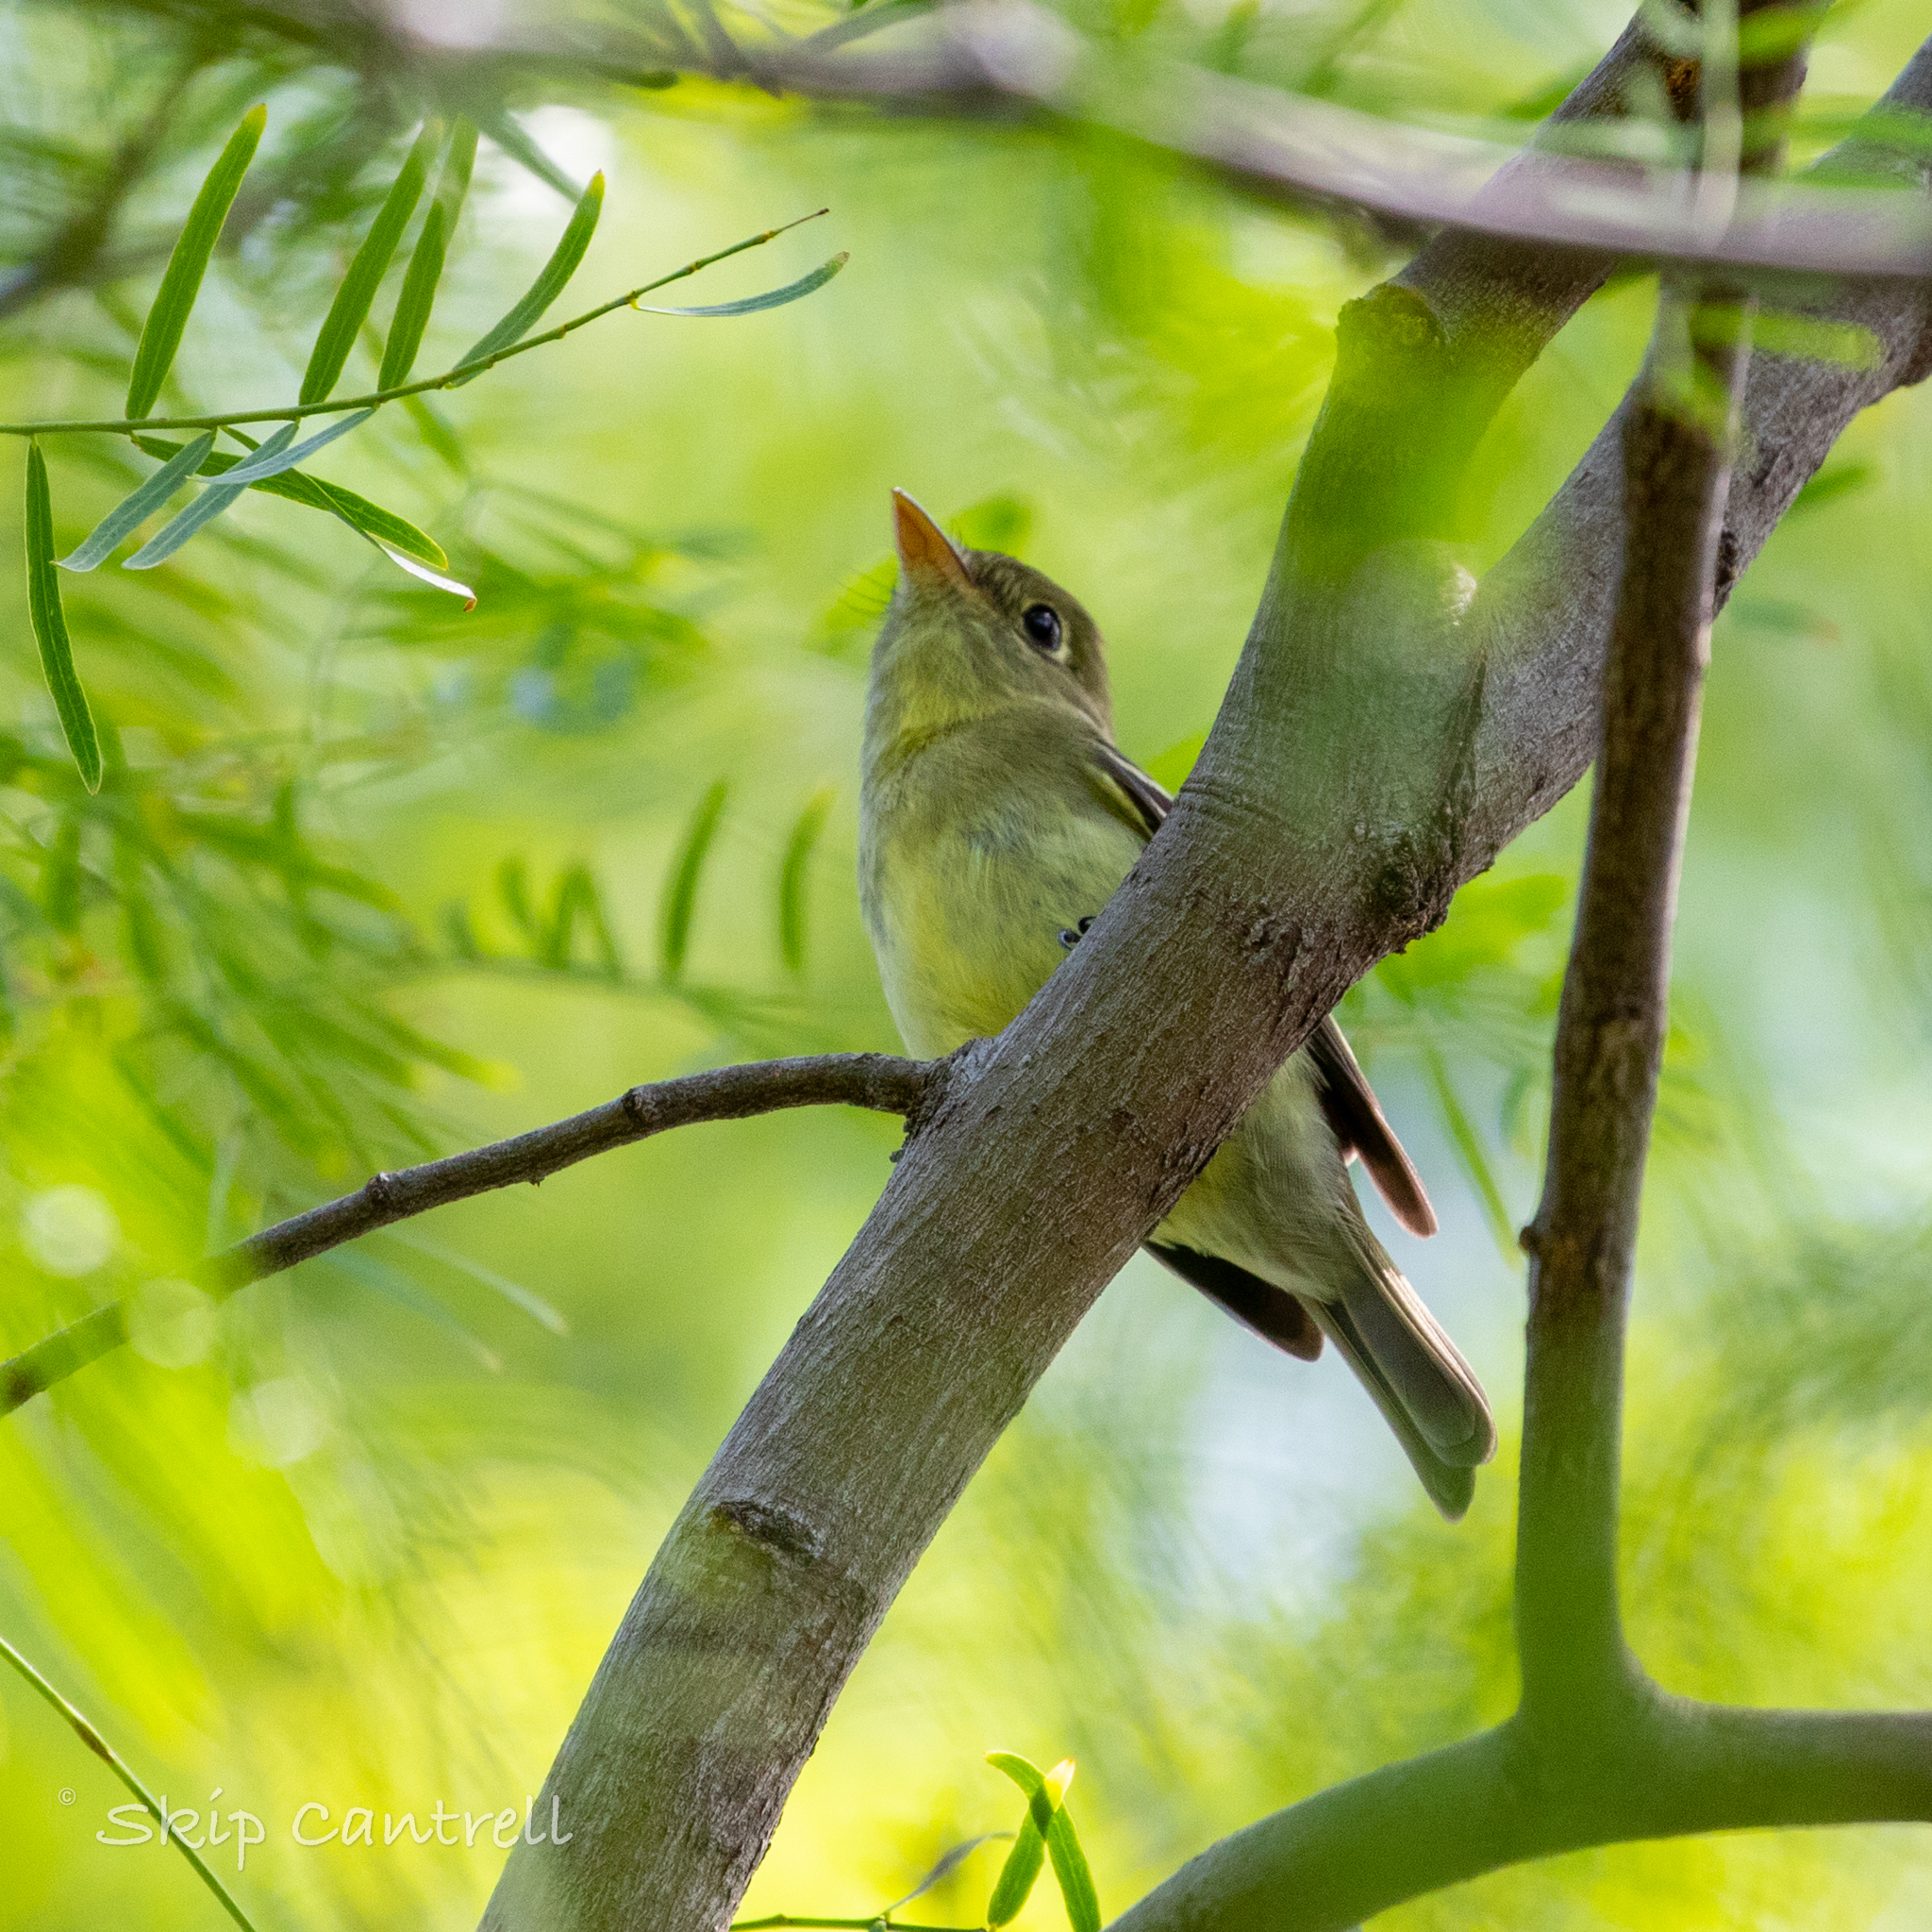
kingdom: Animalia
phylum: Chordata
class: Aves
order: Passeriformes
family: Tyrannidae
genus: Empidonax
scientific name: Empidonax flaviventris
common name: Yellow-bellied flycatcher
